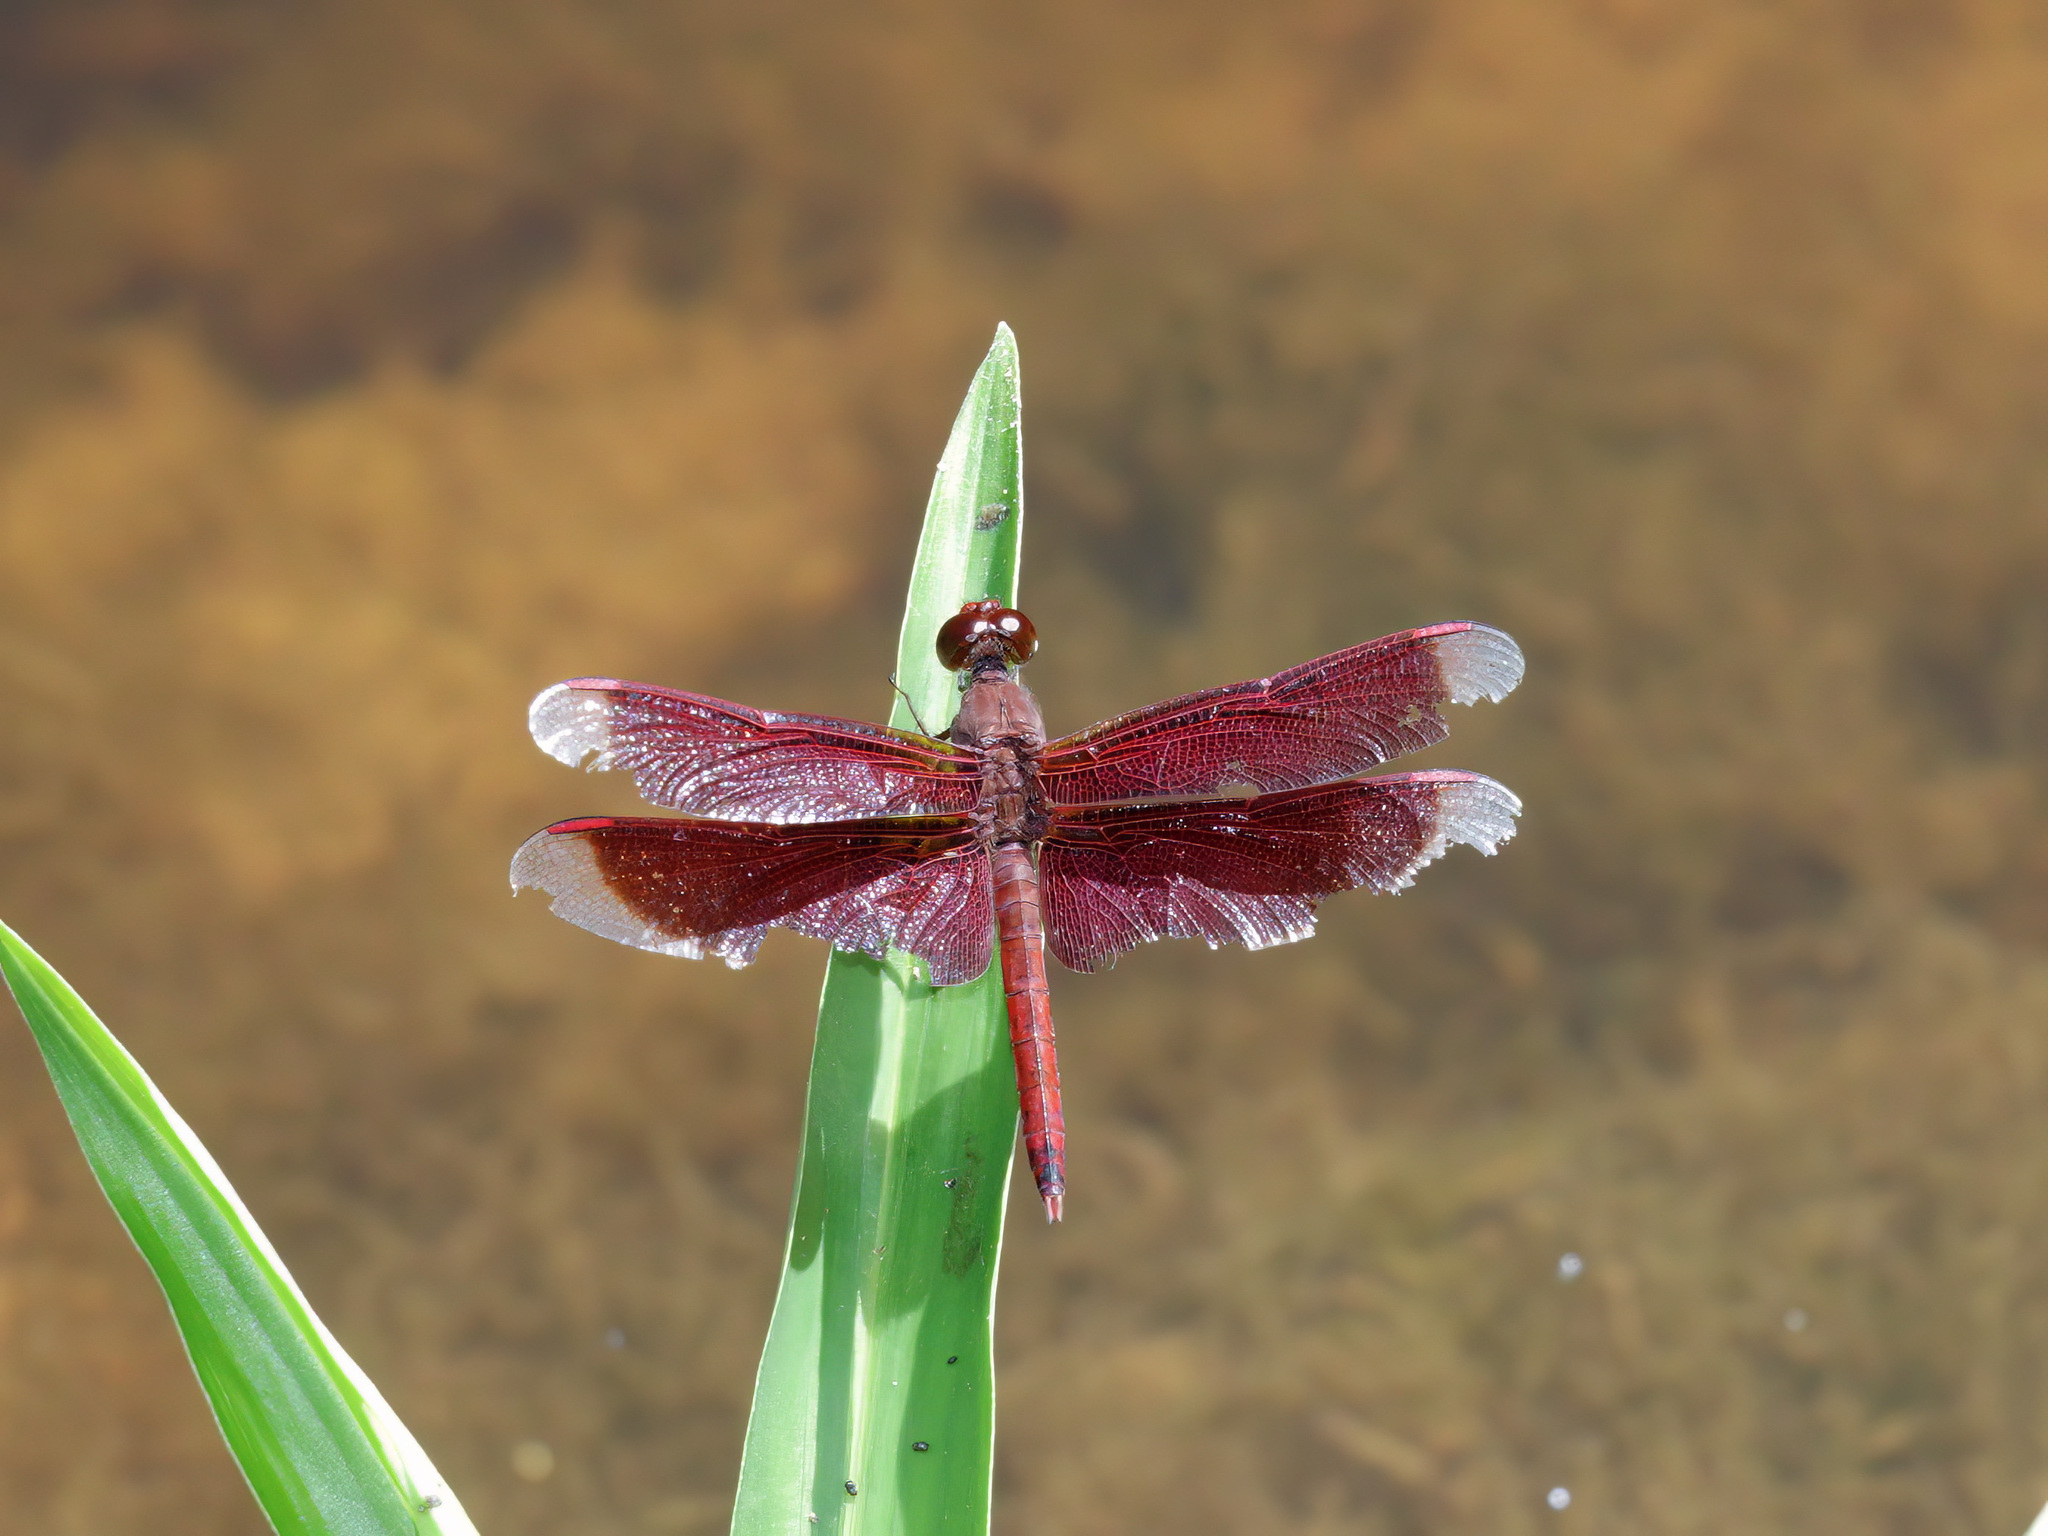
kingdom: Animalia
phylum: Arthropoda
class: Insecta
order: Odonata
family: Libellulidae
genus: Neurothemis
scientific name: Neurothemis fluctuans
